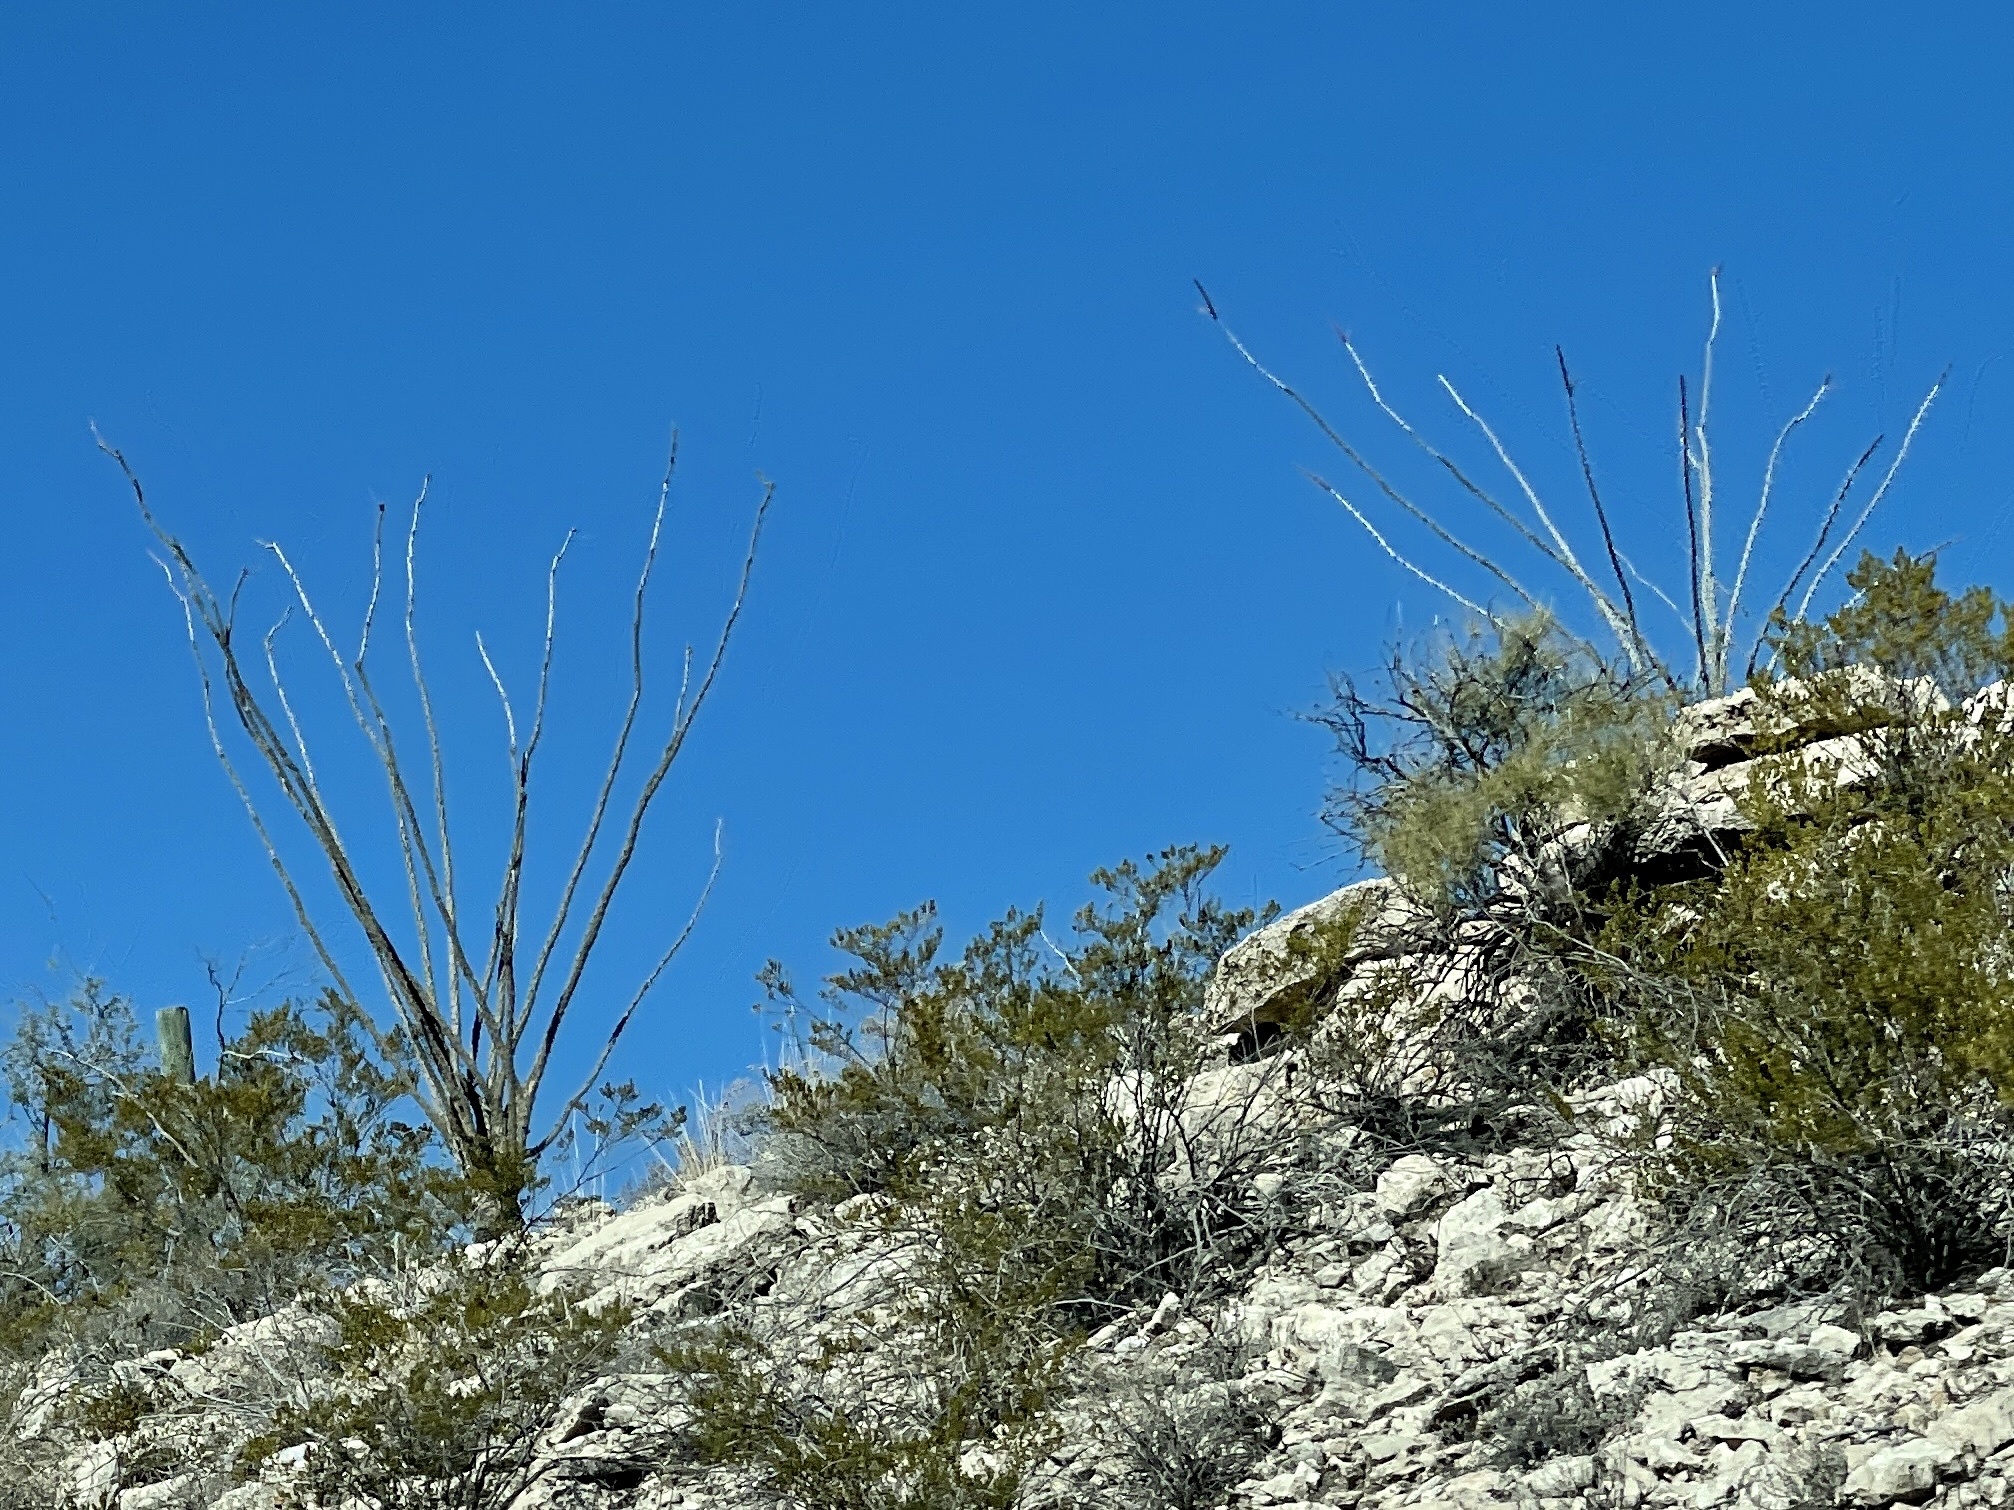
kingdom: Plantae
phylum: Tracheophyta
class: Magnoliopsida
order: Ericales
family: Fouquieriaceae
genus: Fouquieria
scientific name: Fouquieria splendens
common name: Vine-cactus
